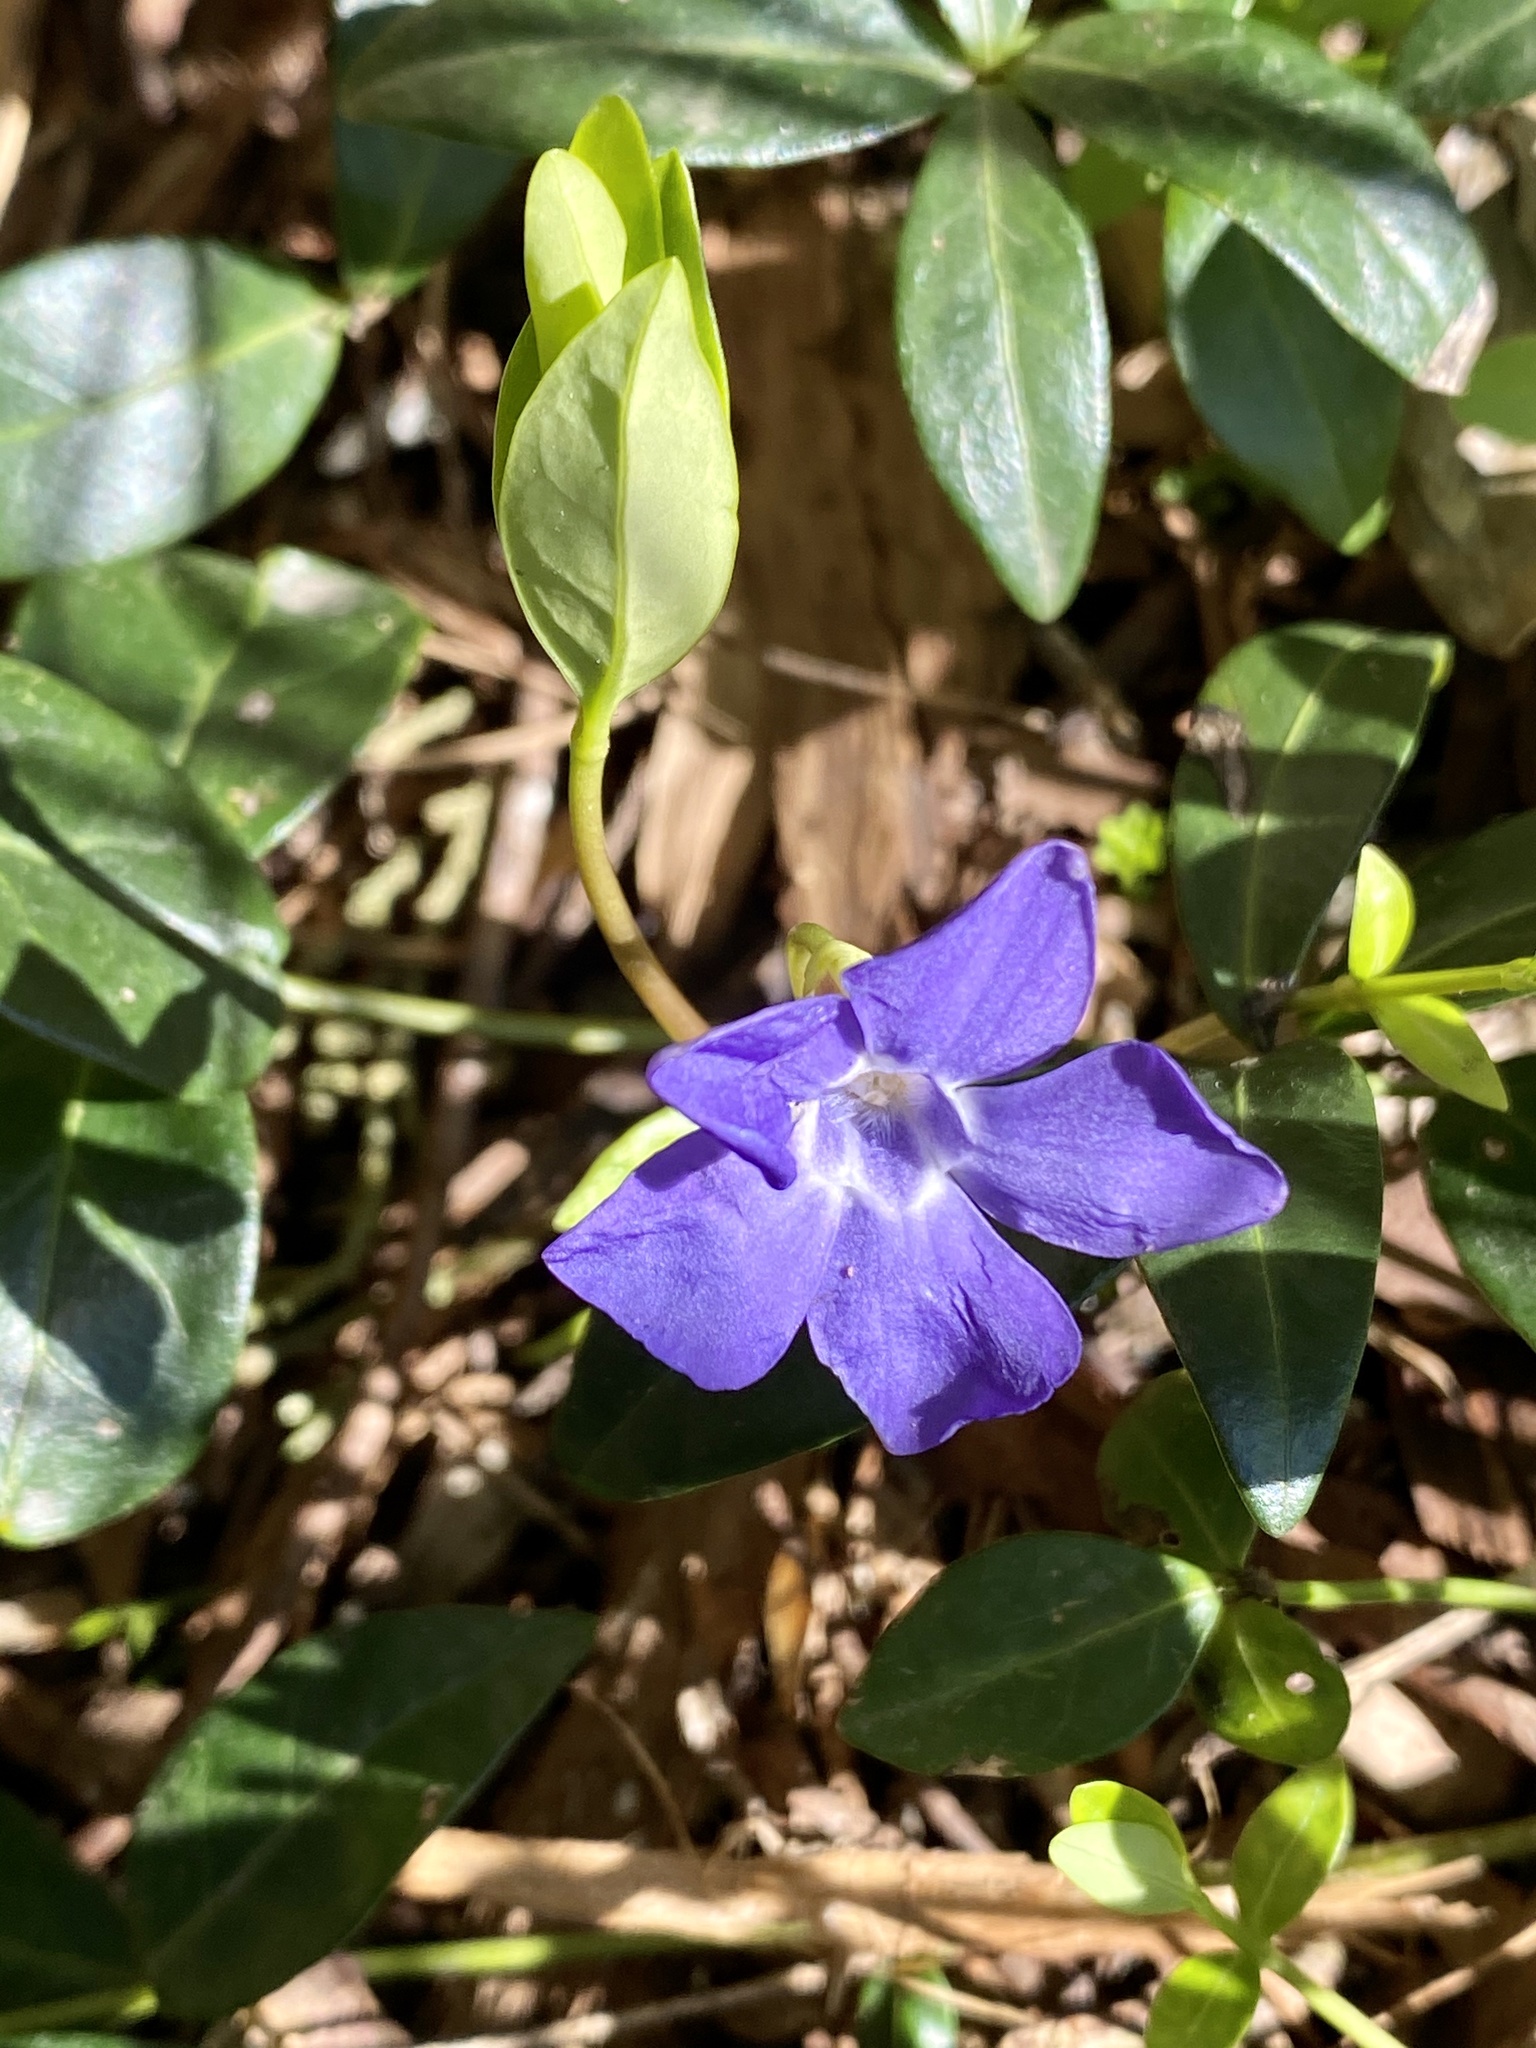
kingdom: Plantae
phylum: Tracheophyta
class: Magnoliopsida
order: Gentianales
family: Apocynaceae
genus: Vinca
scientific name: Vinca minor
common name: Lesser periwinkle
